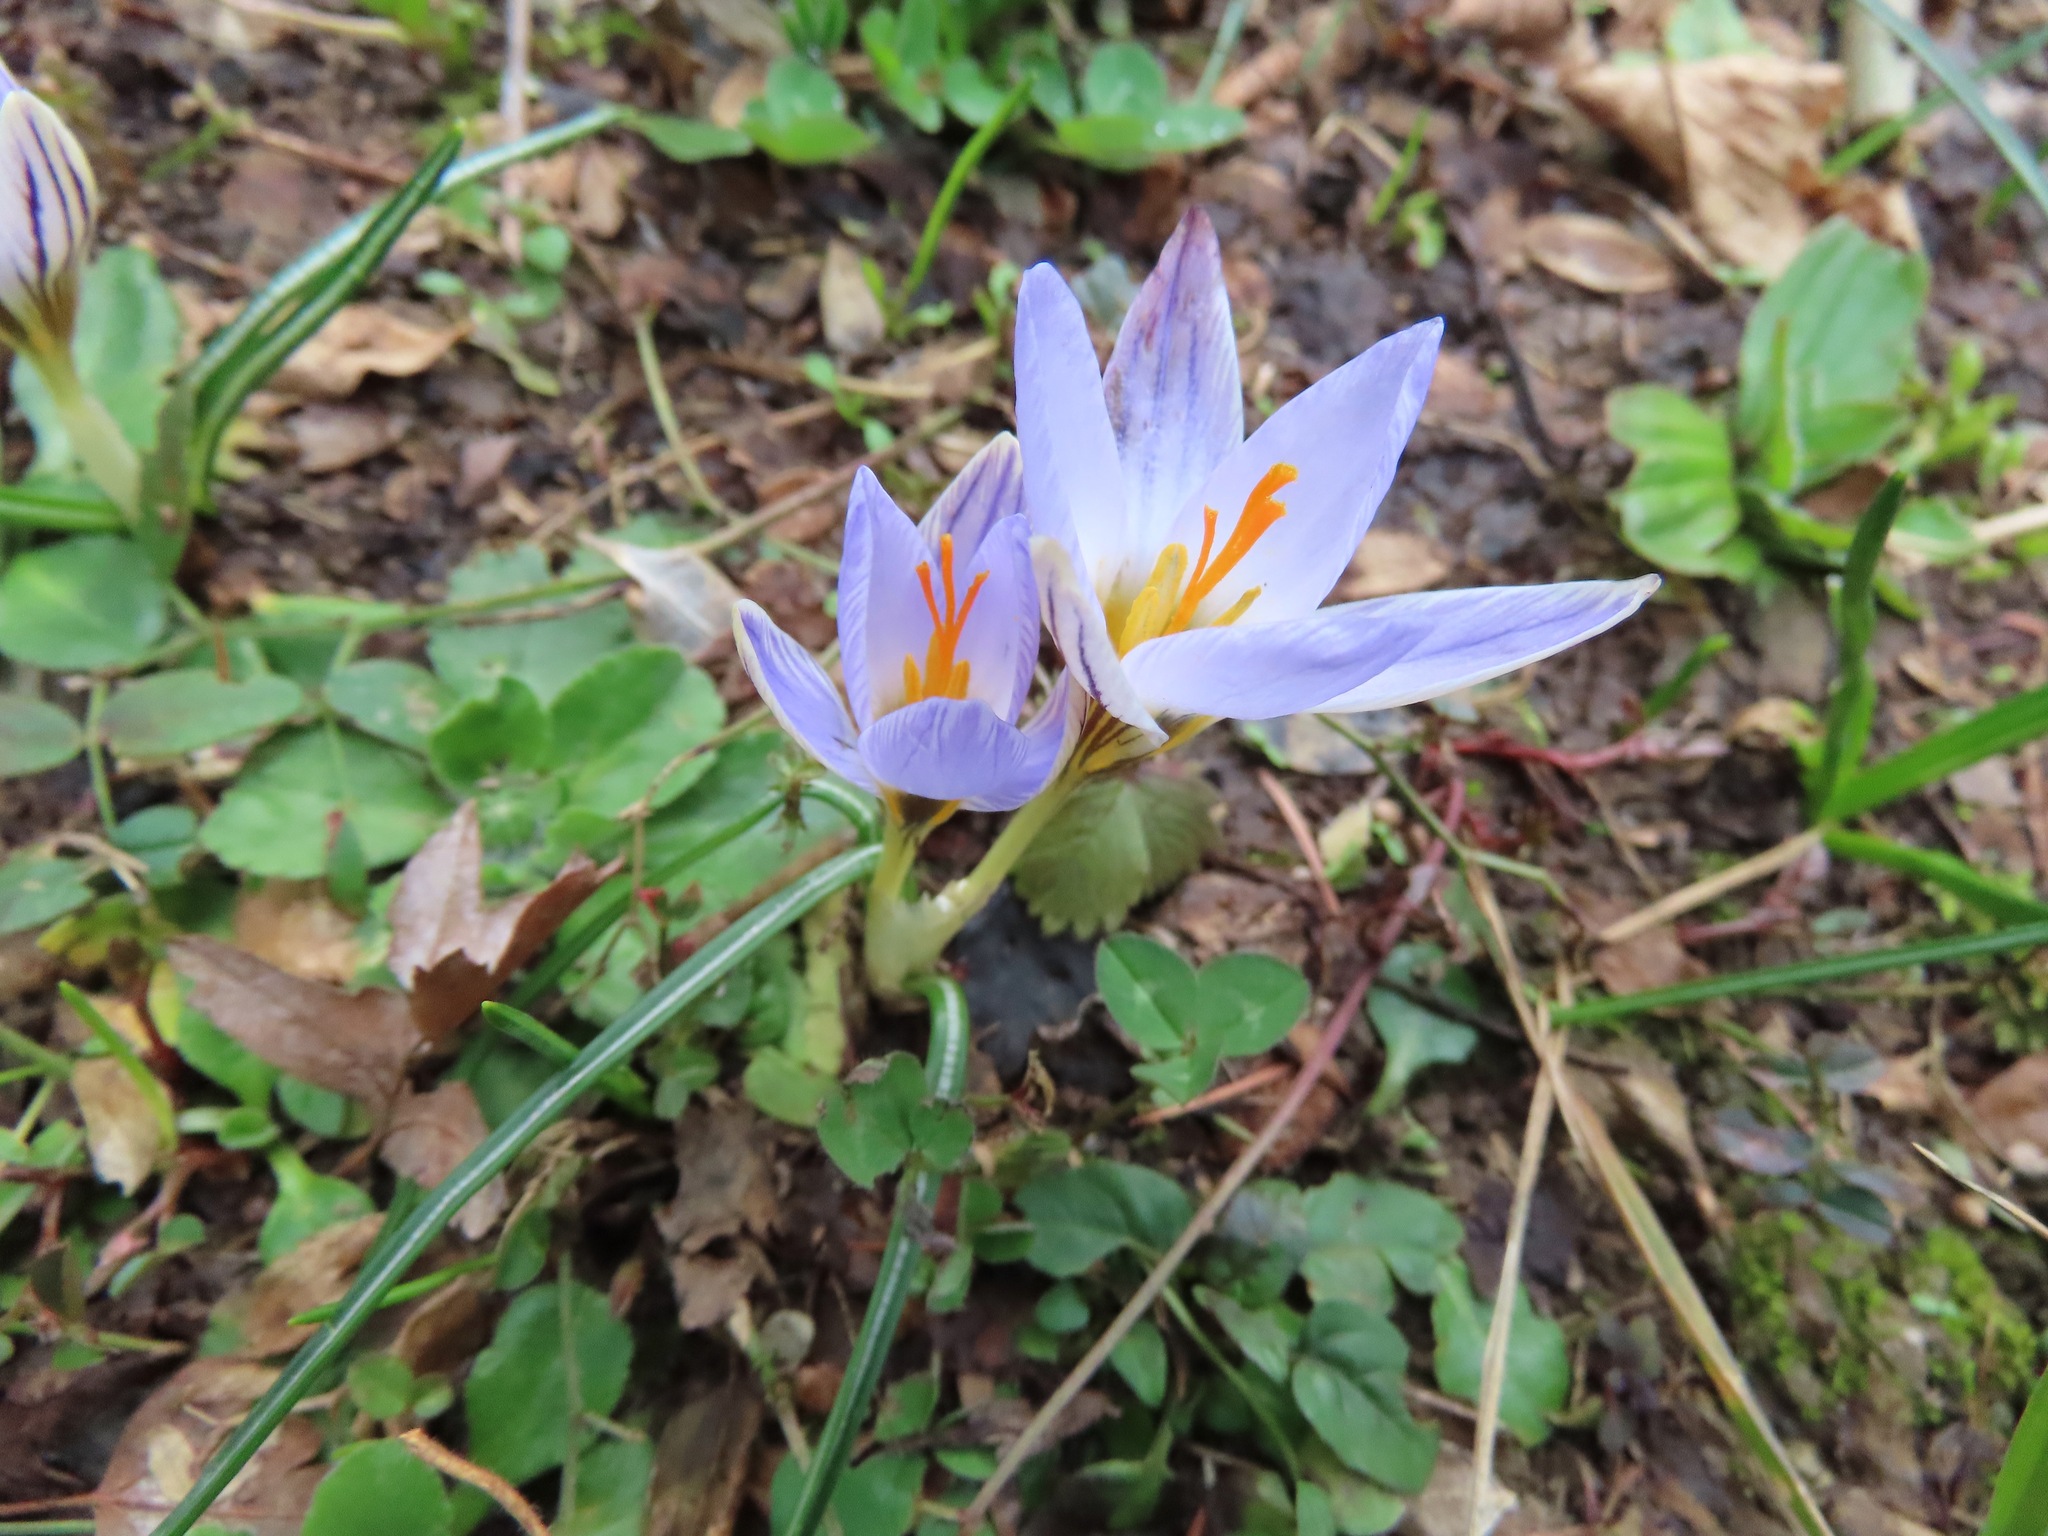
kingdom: Plantae
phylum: Tracheophyta
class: Liliopsida
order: Asparagales
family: Iridaceae
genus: Crocus
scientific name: Crocus biflorus
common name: Silvery crocus
